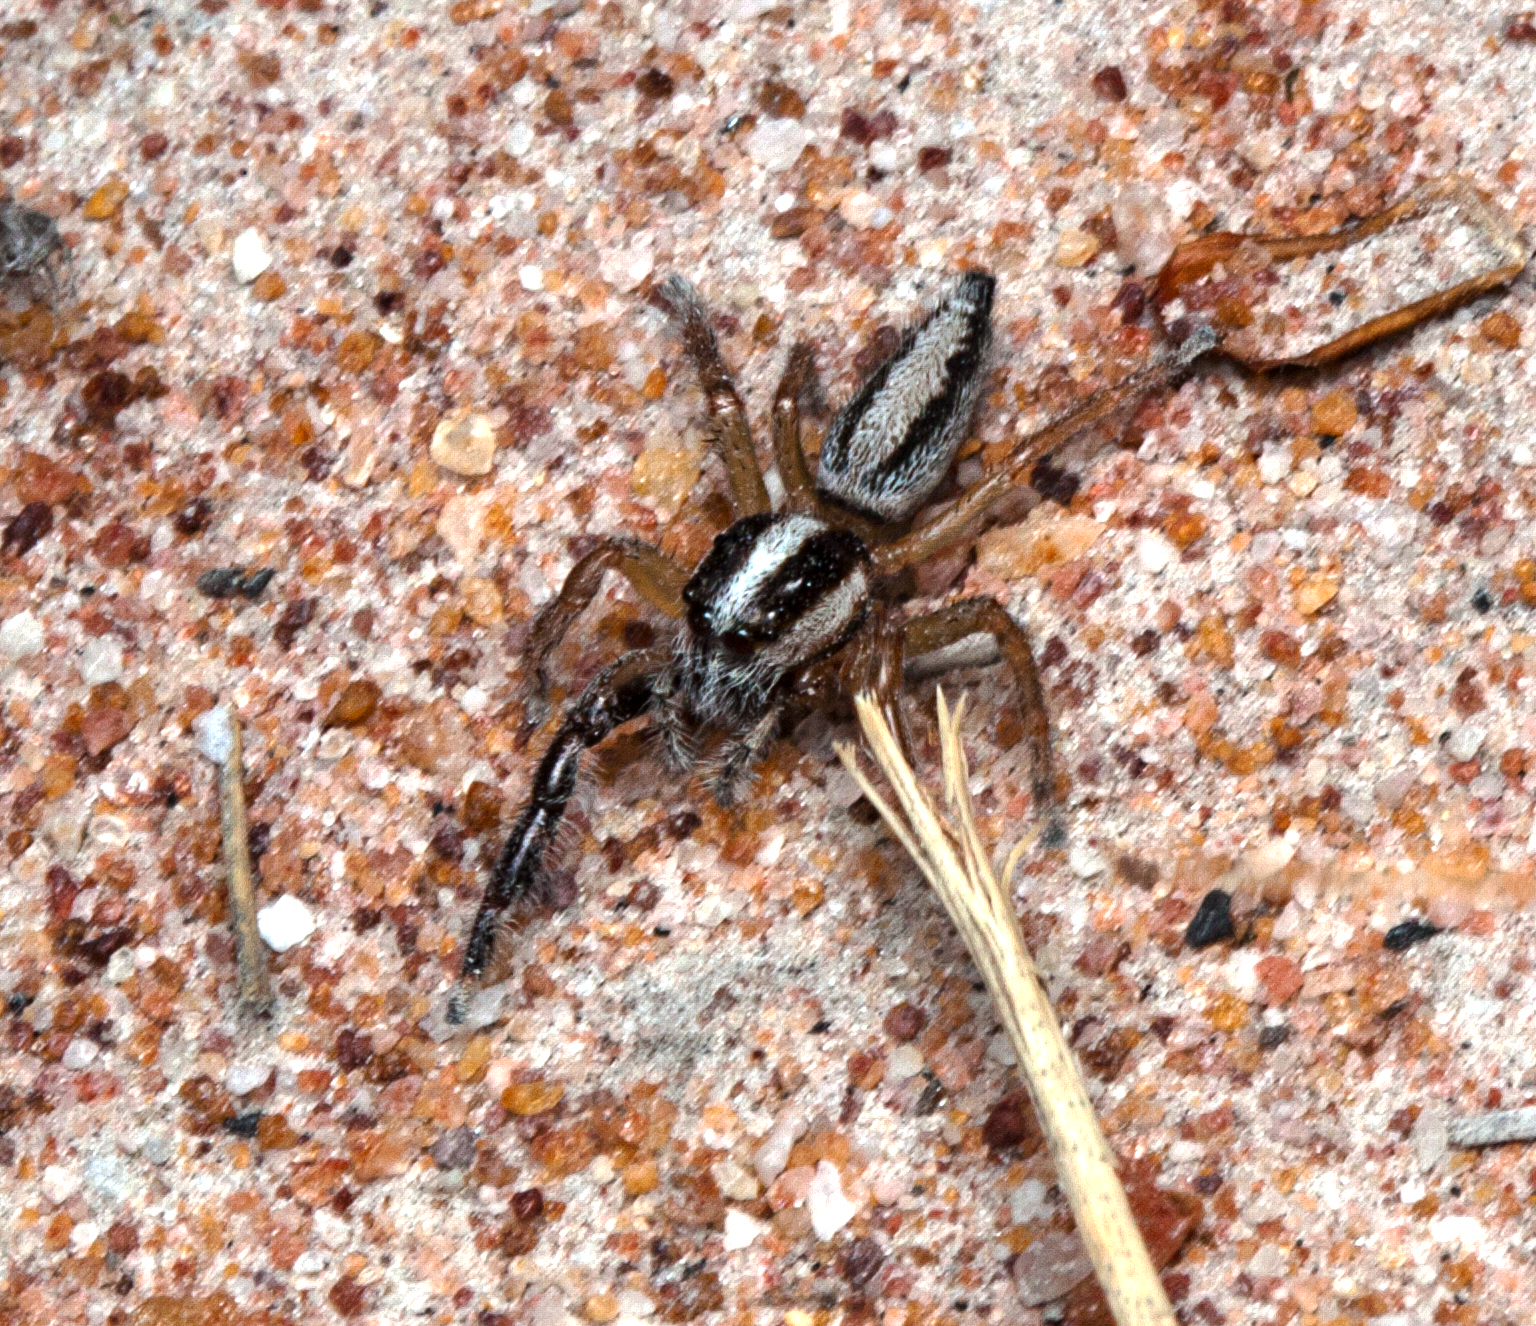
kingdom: Animalia
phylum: Arthropoda
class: Arachnida
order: Araneae
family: Salticidae
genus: Mopsolodes
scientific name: Mopsolodes australensis
